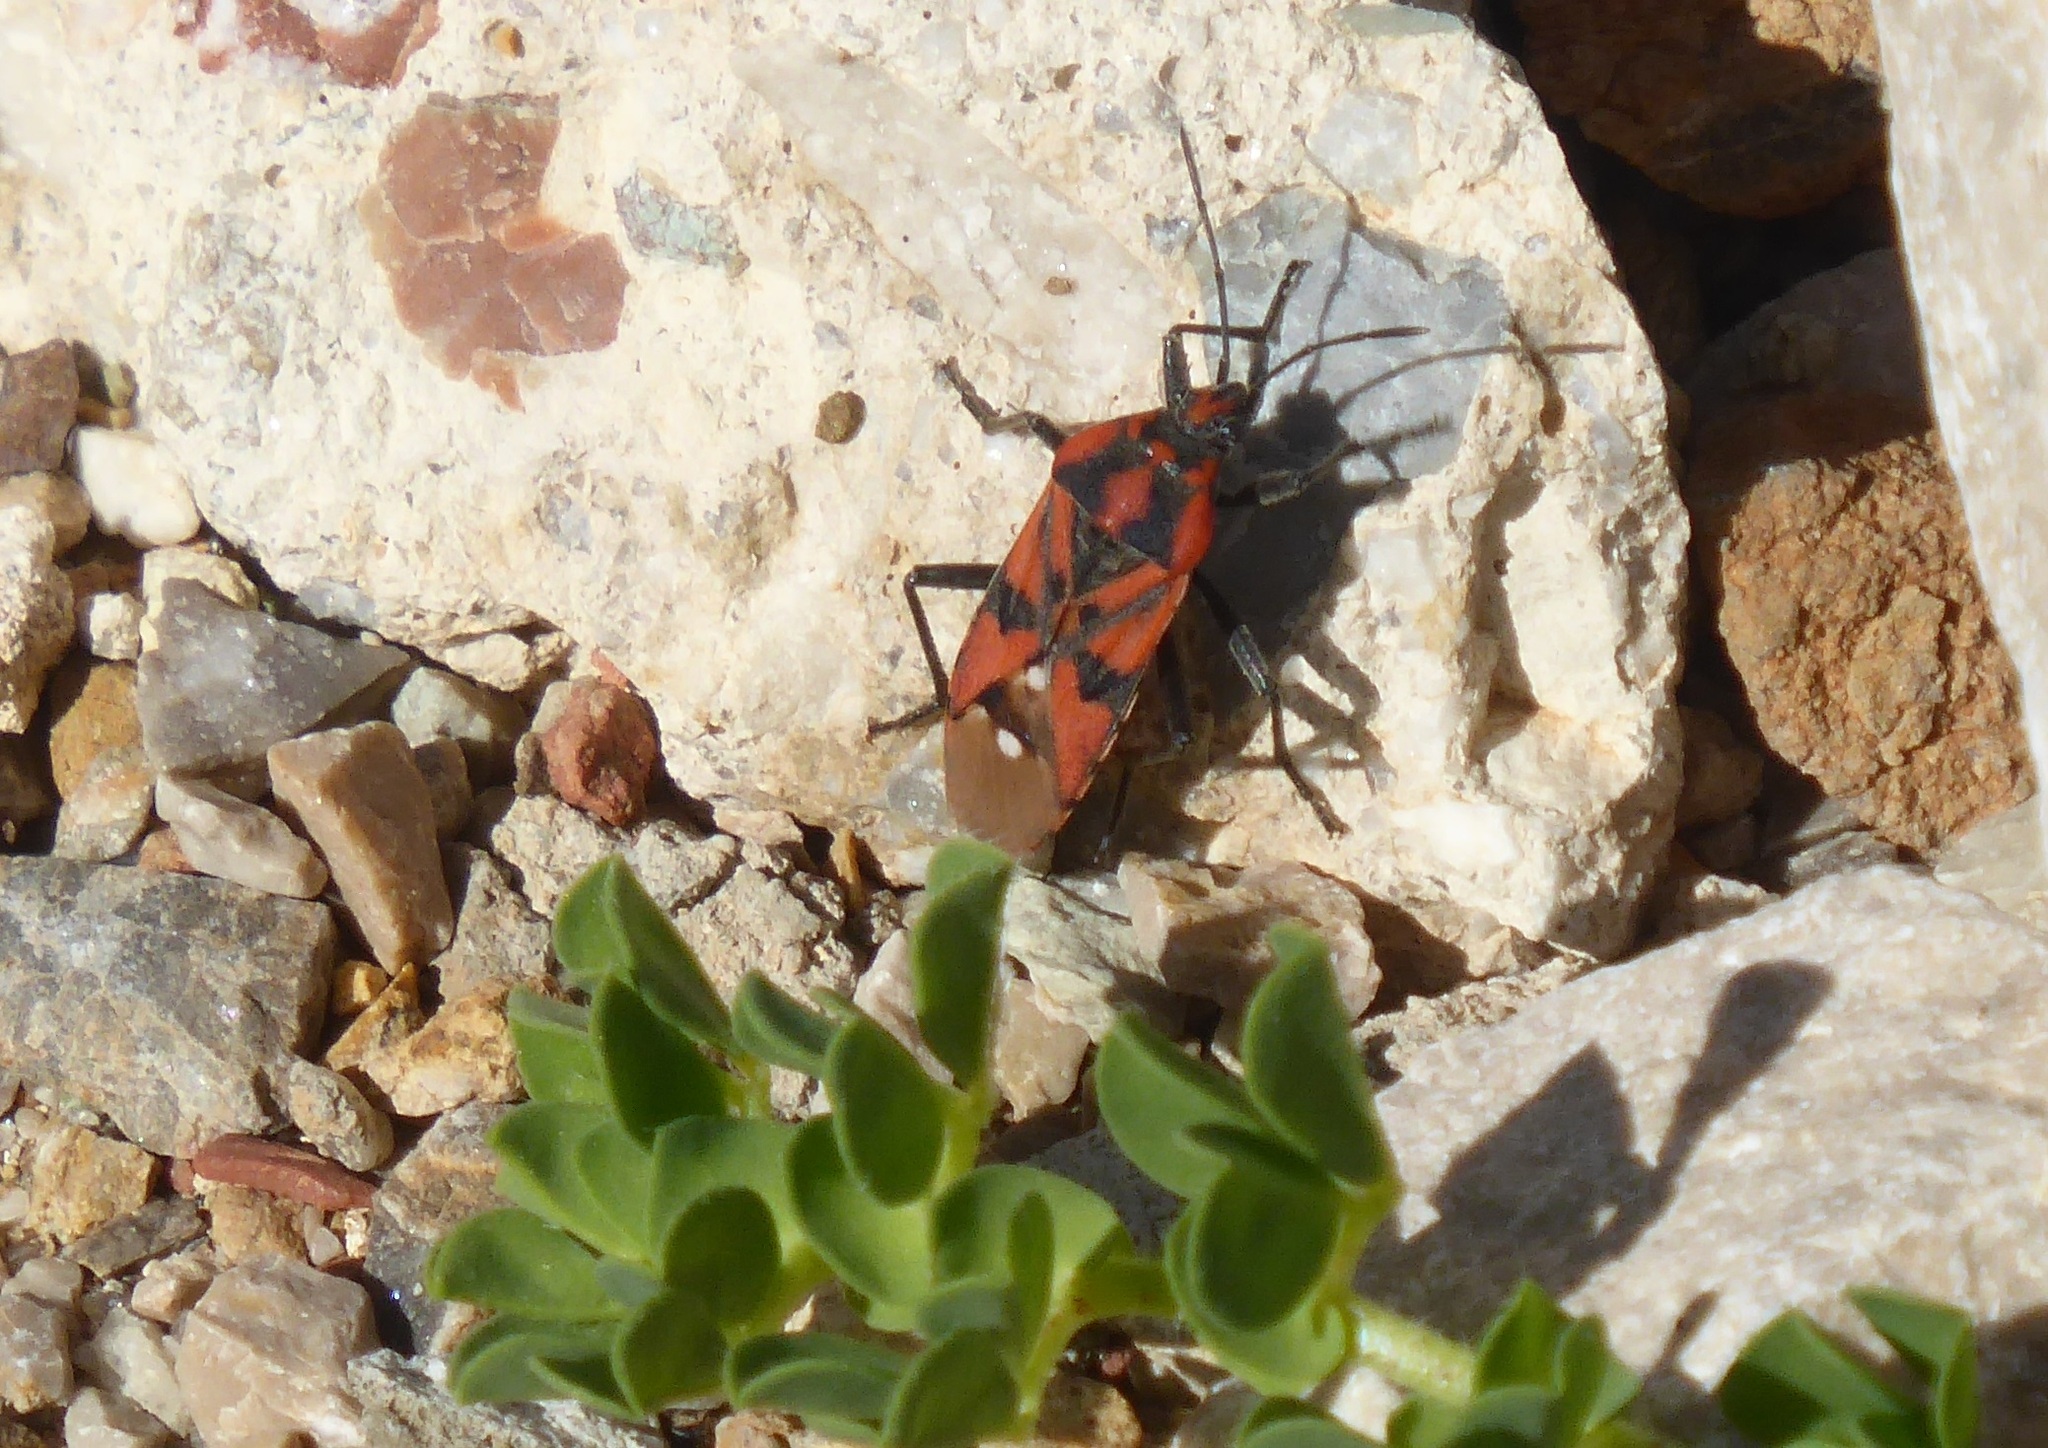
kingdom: Animalia
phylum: Arthropoda
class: Insecta
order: Hemiptera
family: Lygaeidae
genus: Spilostethus
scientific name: Spilostethus pandurus
